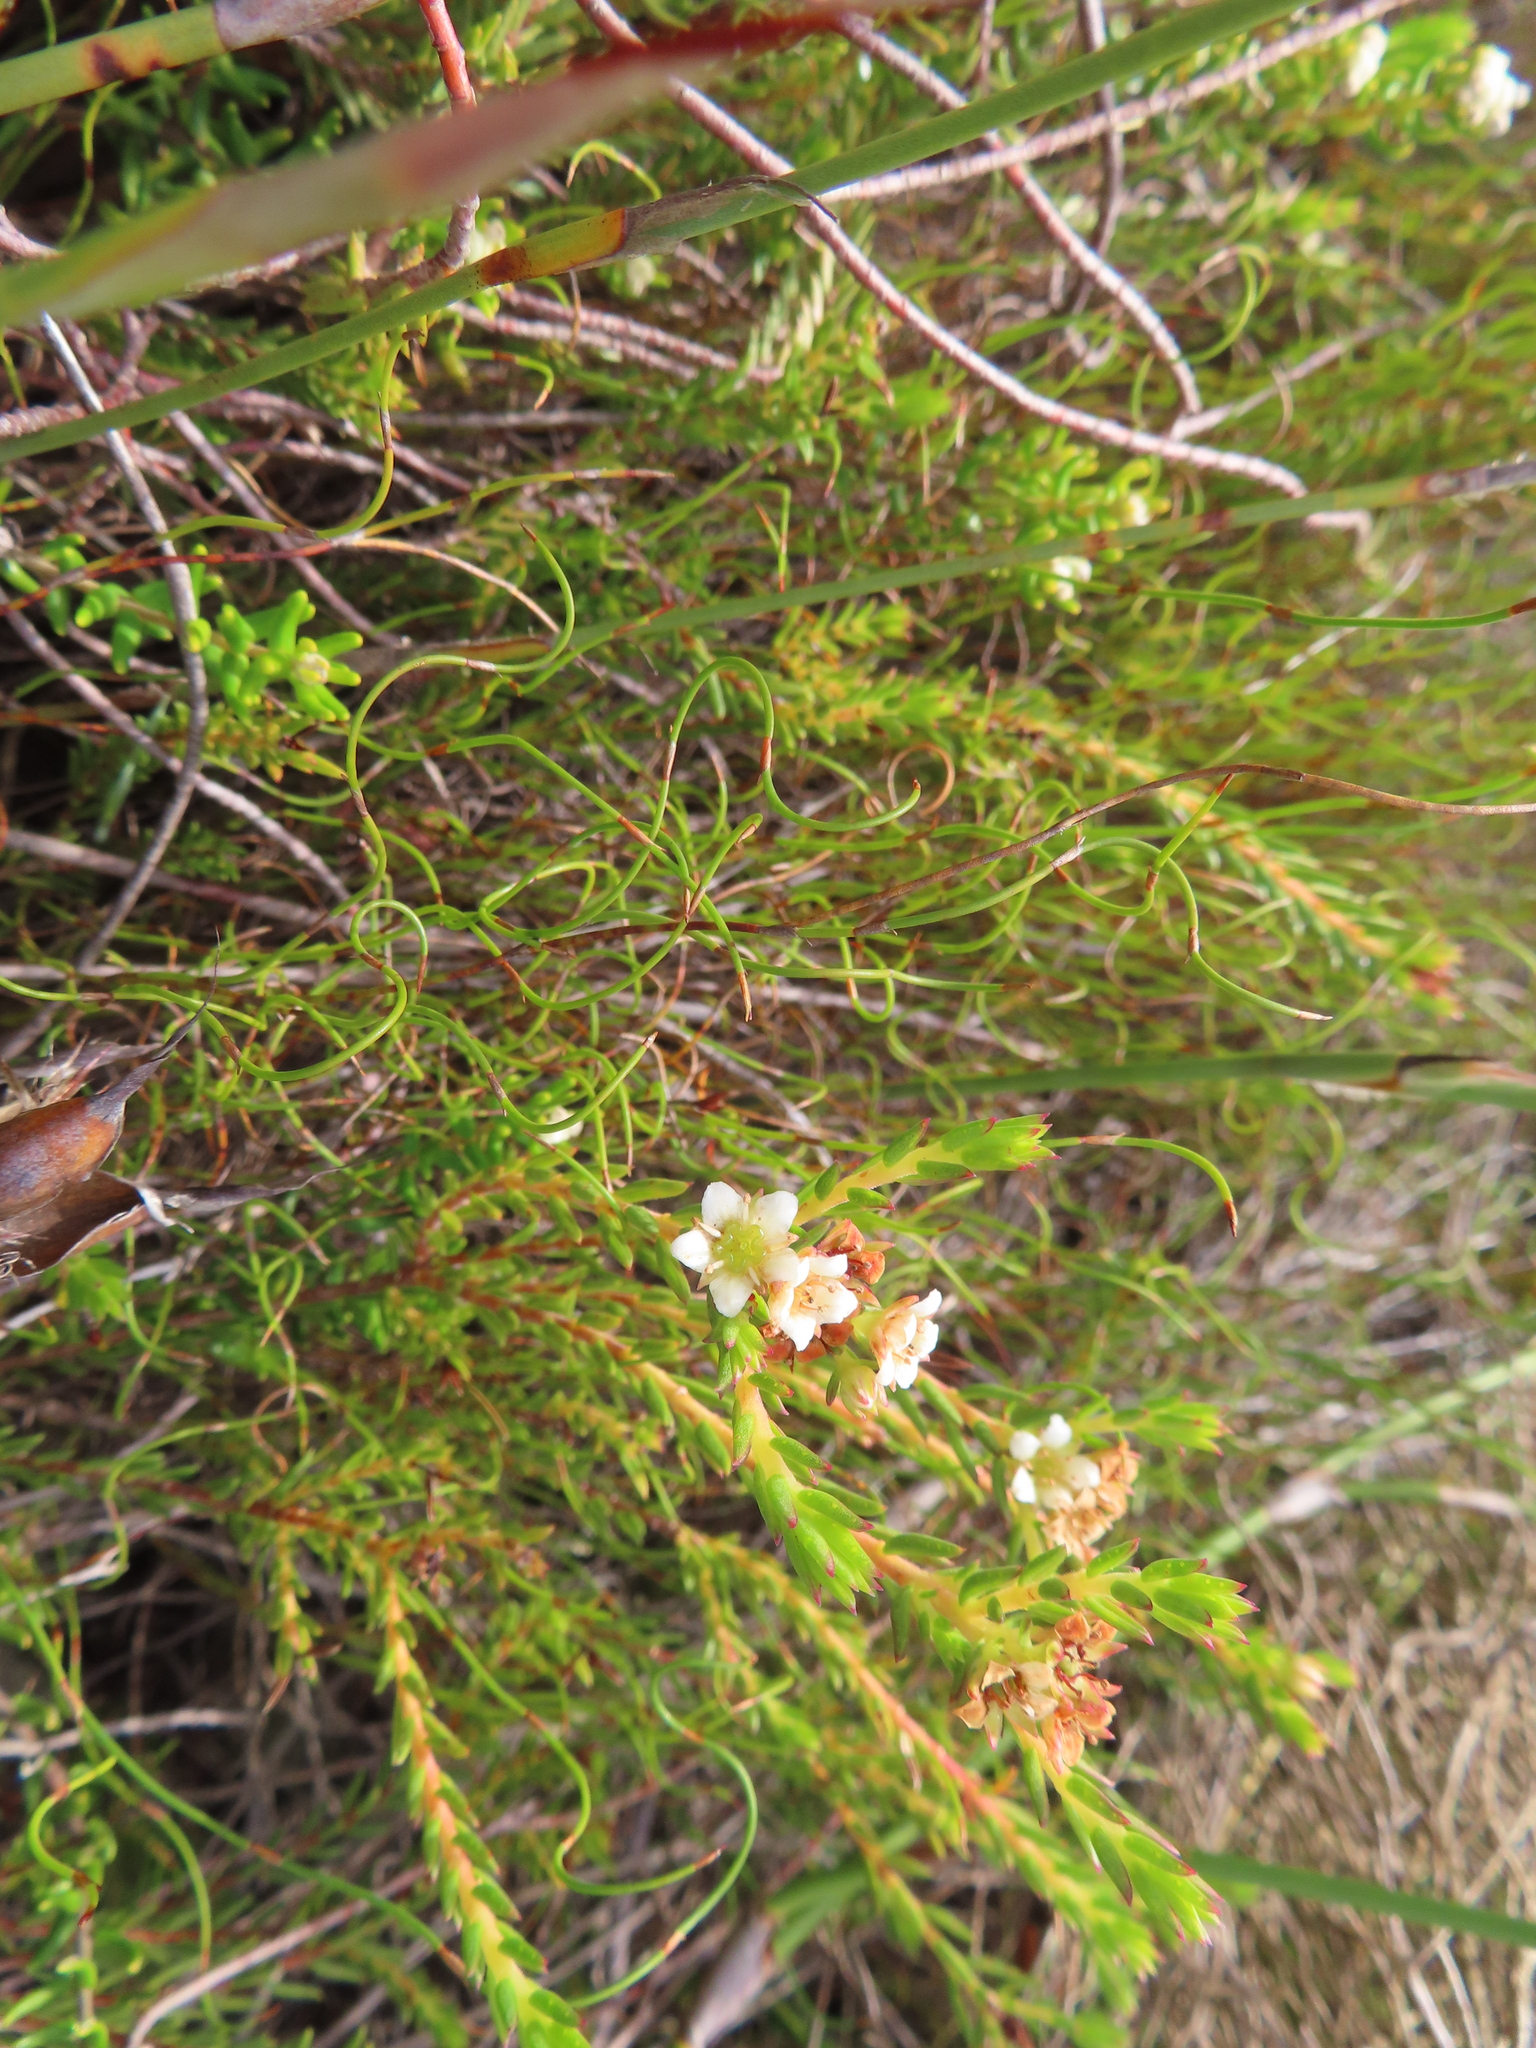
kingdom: Plantae
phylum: Tracheophyta
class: Magnoliopsida
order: Sapindales
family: Rutaceae
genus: Diosma
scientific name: Diosma oppositifolia
